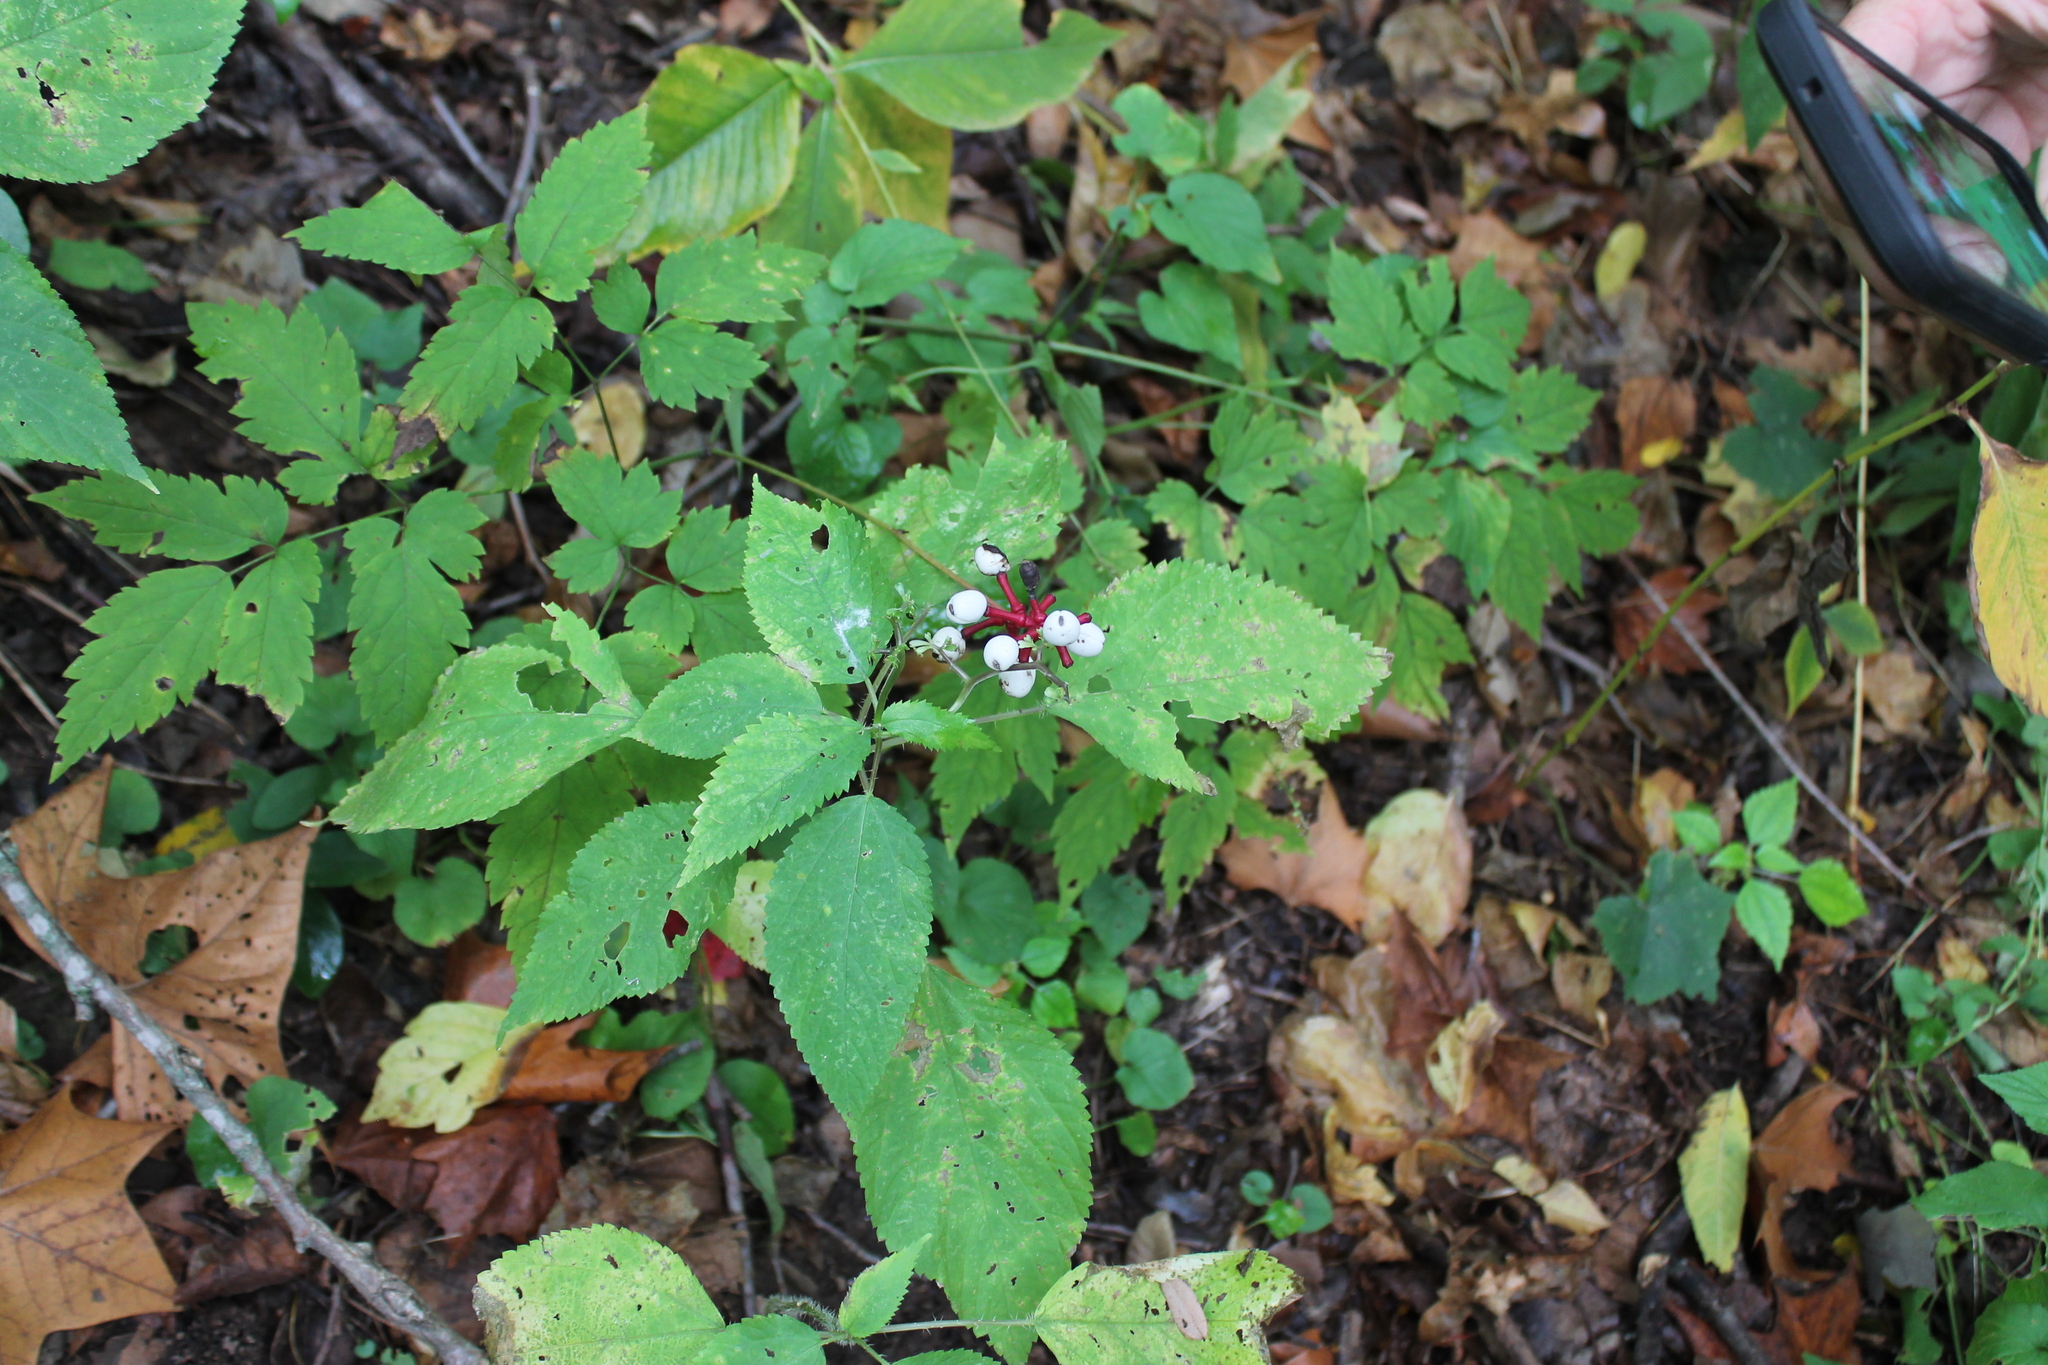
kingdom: Plantae
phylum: Tracheophyta
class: Magnoliopsida
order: Ranunculales
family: Ranunculaceae
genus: Actaea
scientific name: Actaea pachypoda
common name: Doll's-eyes
